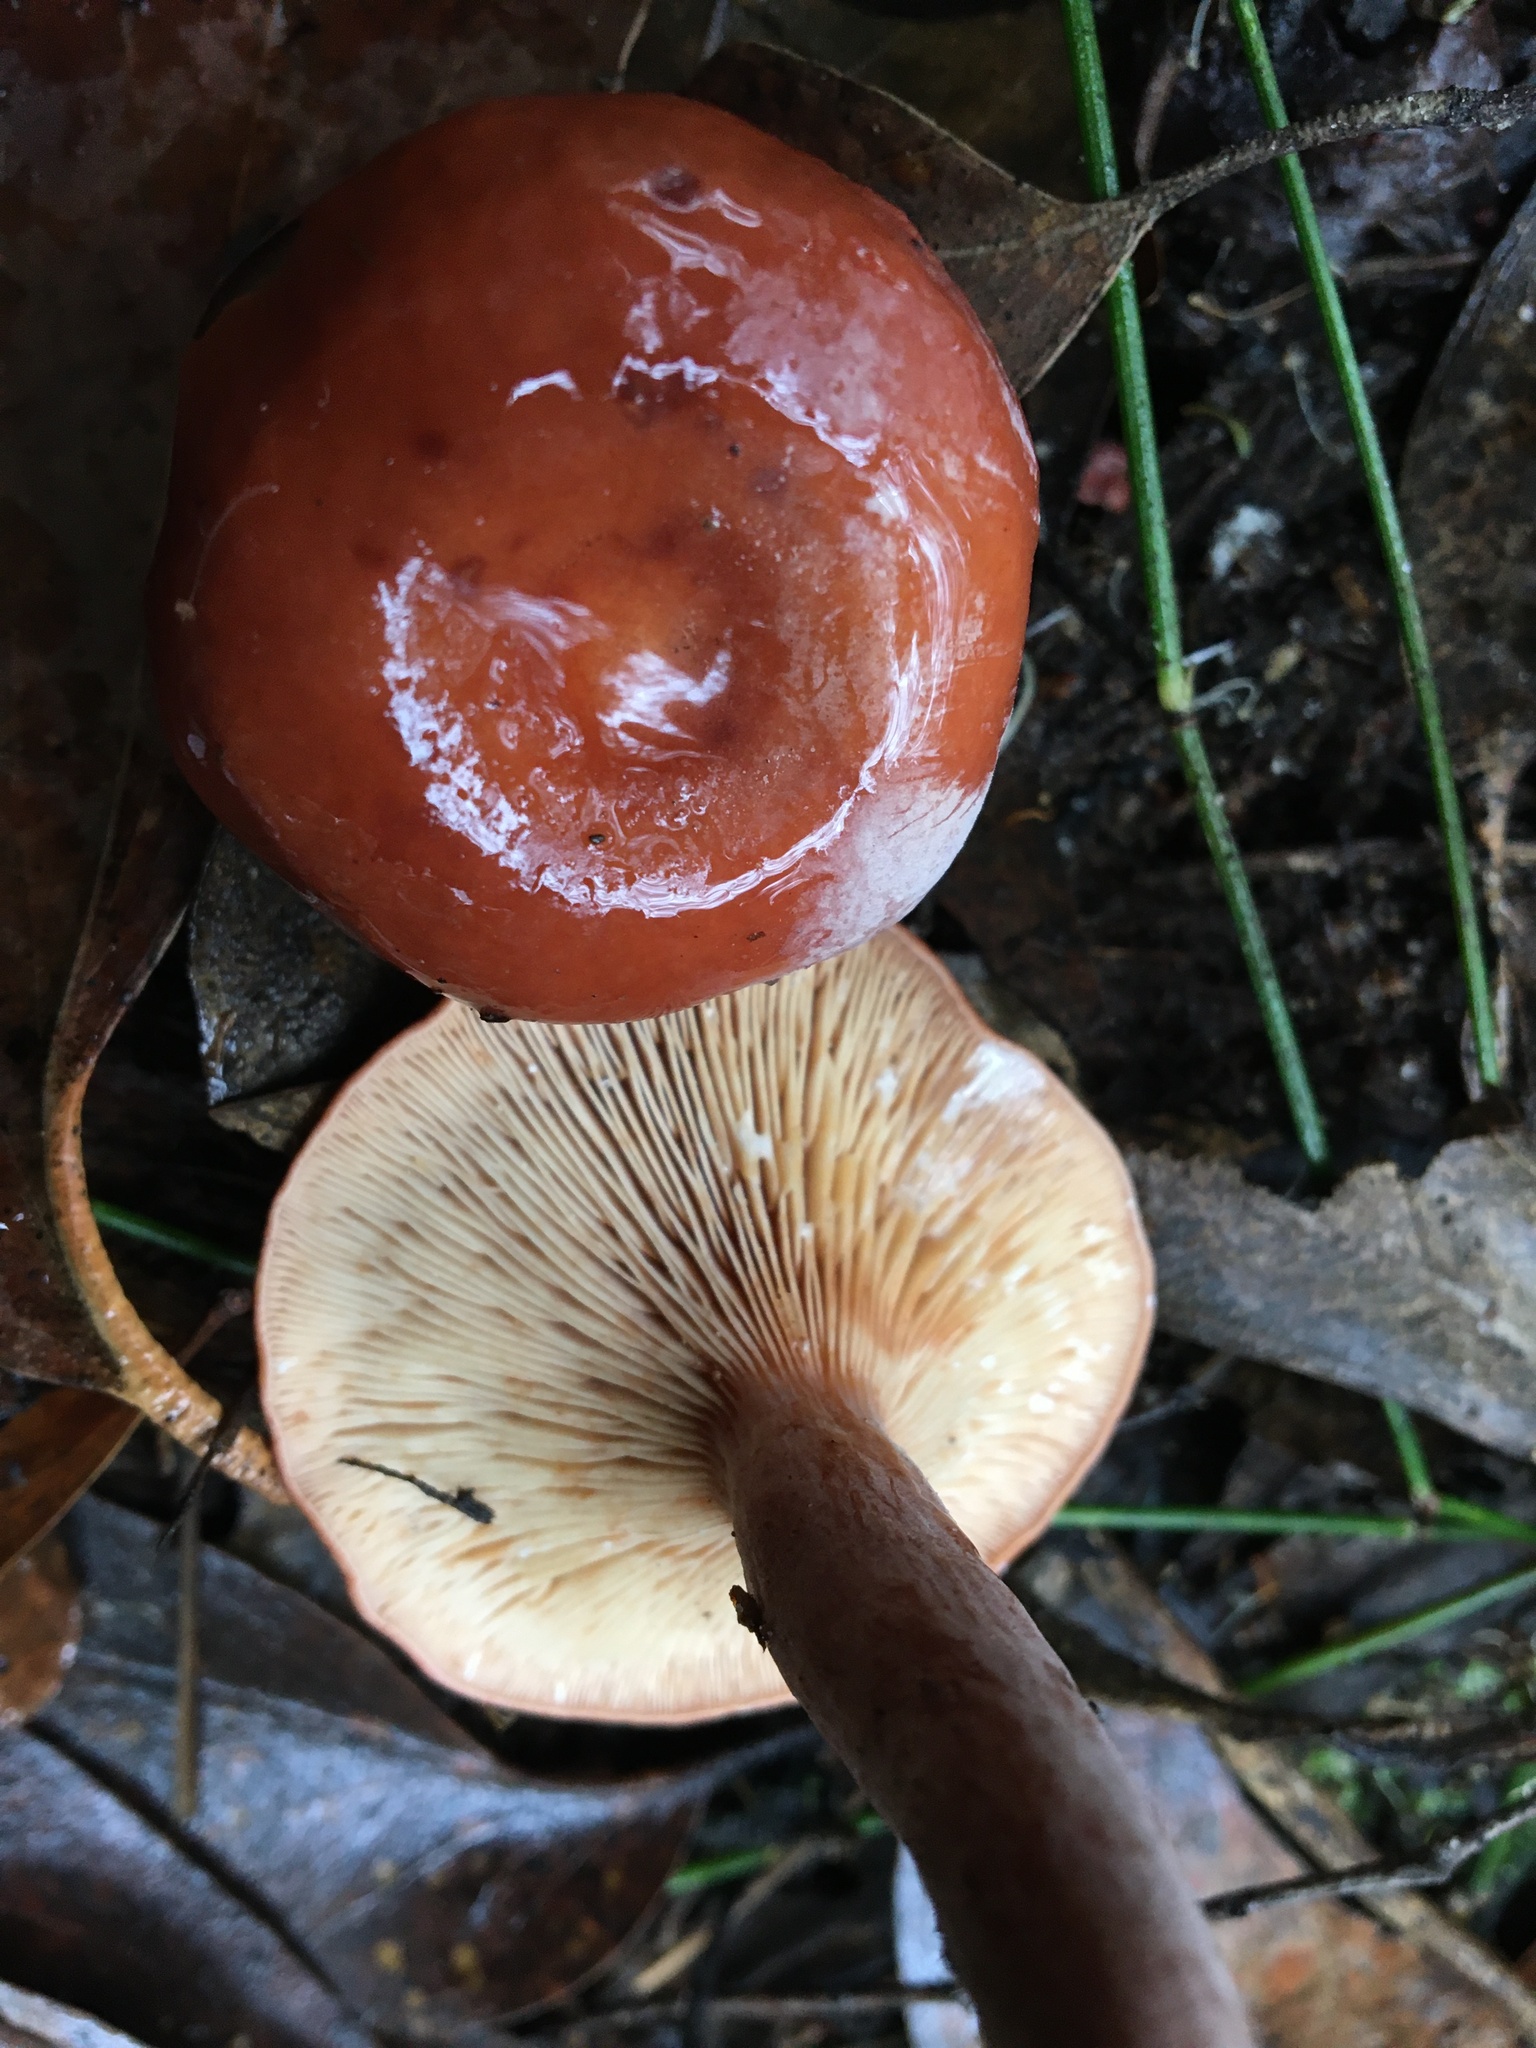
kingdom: Fungi
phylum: Basidiomycota
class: Agaricomycetes
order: Russulales
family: Russulaceae
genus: Lactarius
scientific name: Lactarius eucalypti
